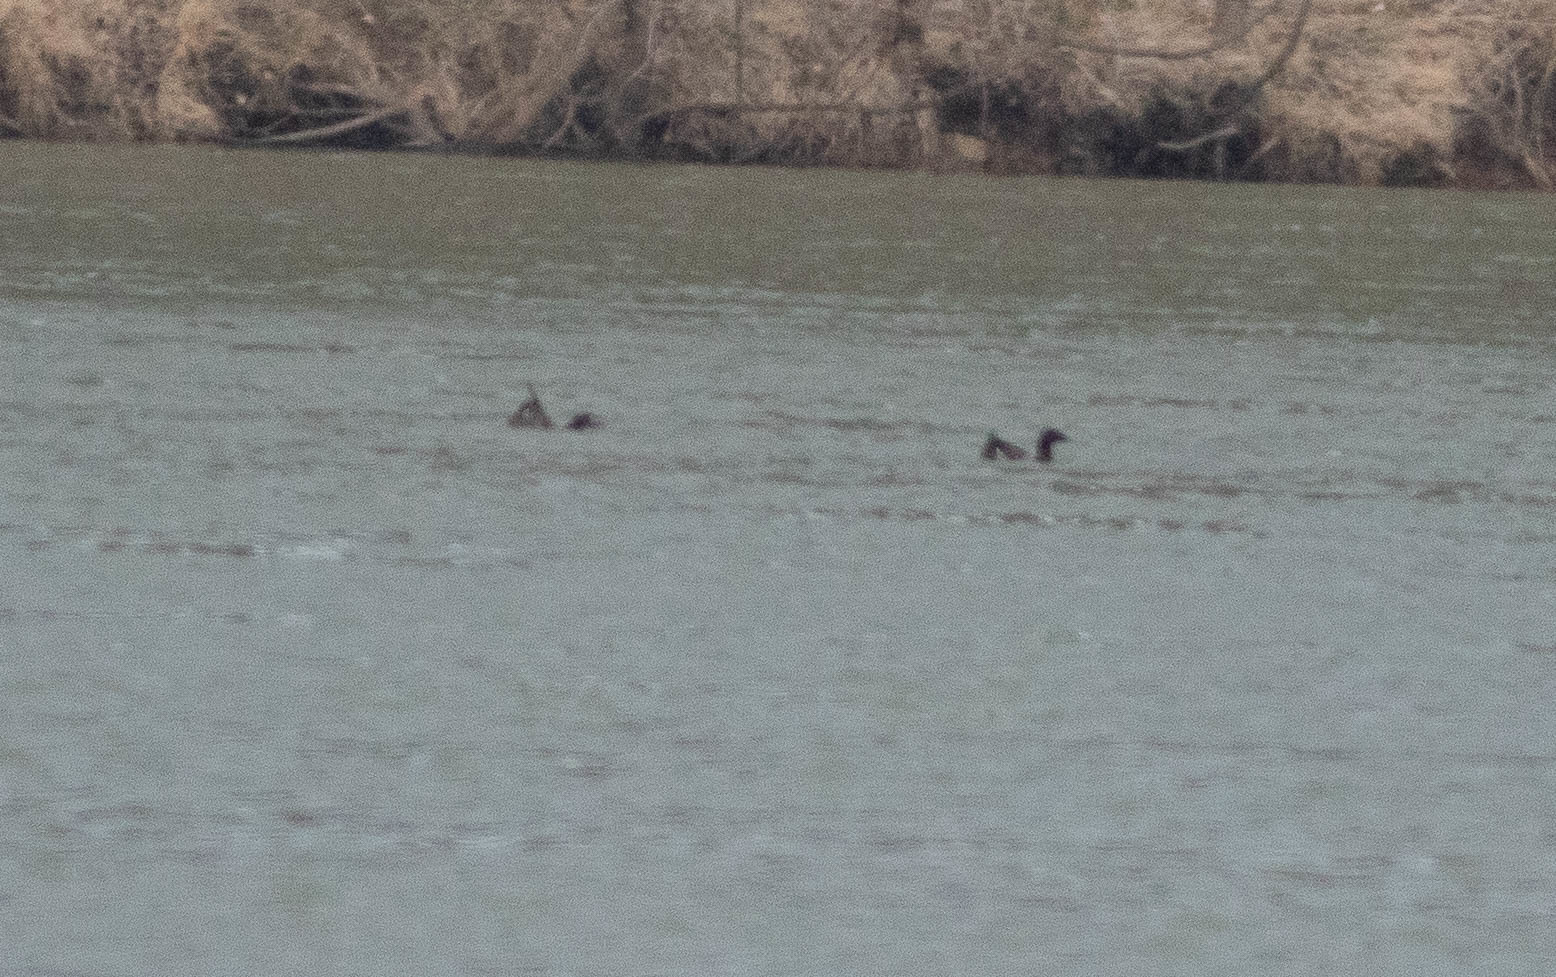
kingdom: Animalia
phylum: Chordata
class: Aves
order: Anseriformes
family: Anatidae
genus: Melanitta
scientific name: Melanitta deglandi
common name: White-winged scoter
